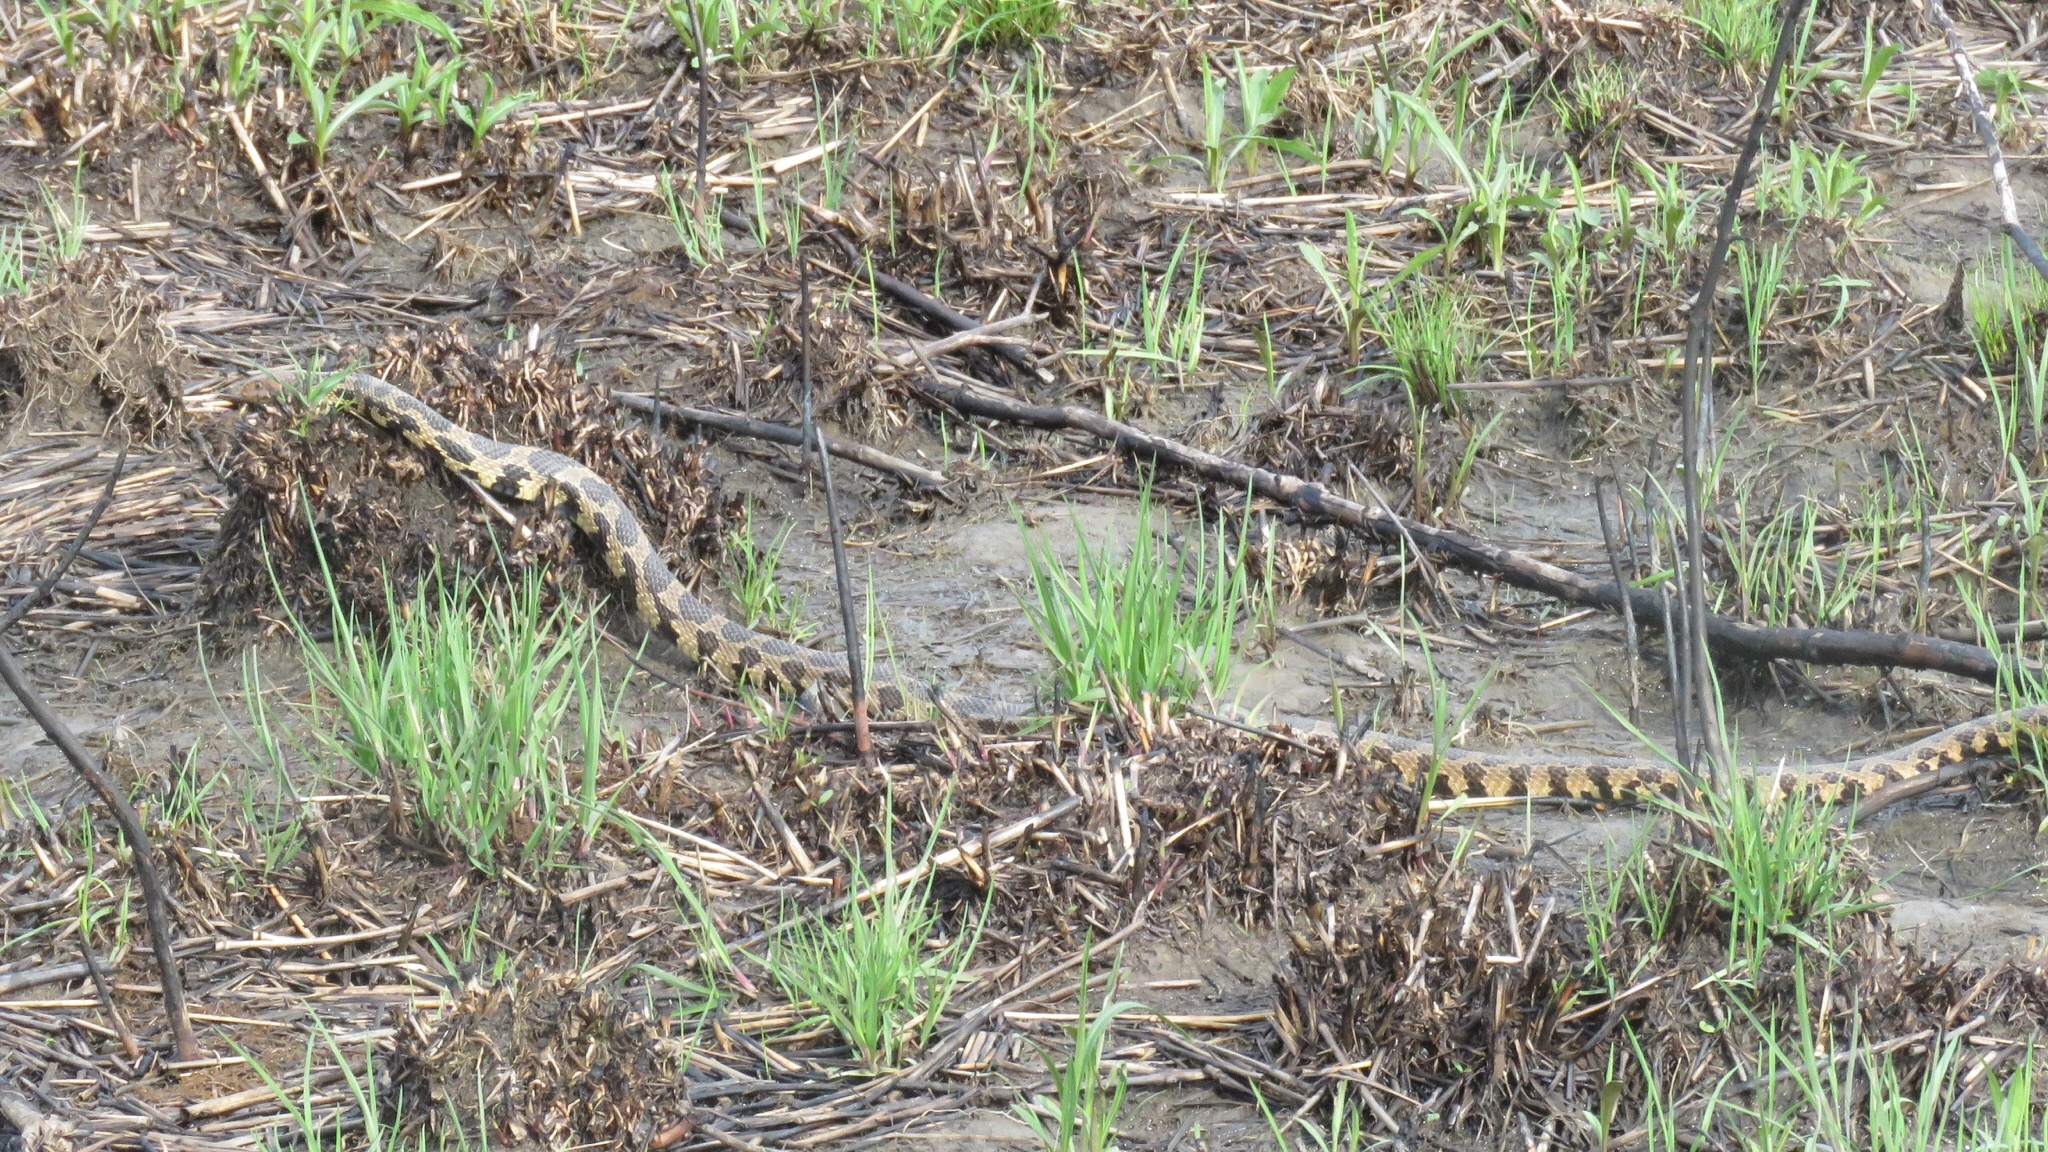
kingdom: Animalia
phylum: Chordata
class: Squamata
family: Colubridae
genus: Pantherophis
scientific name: Pantherophis vulpinus
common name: Eastern fox snake
